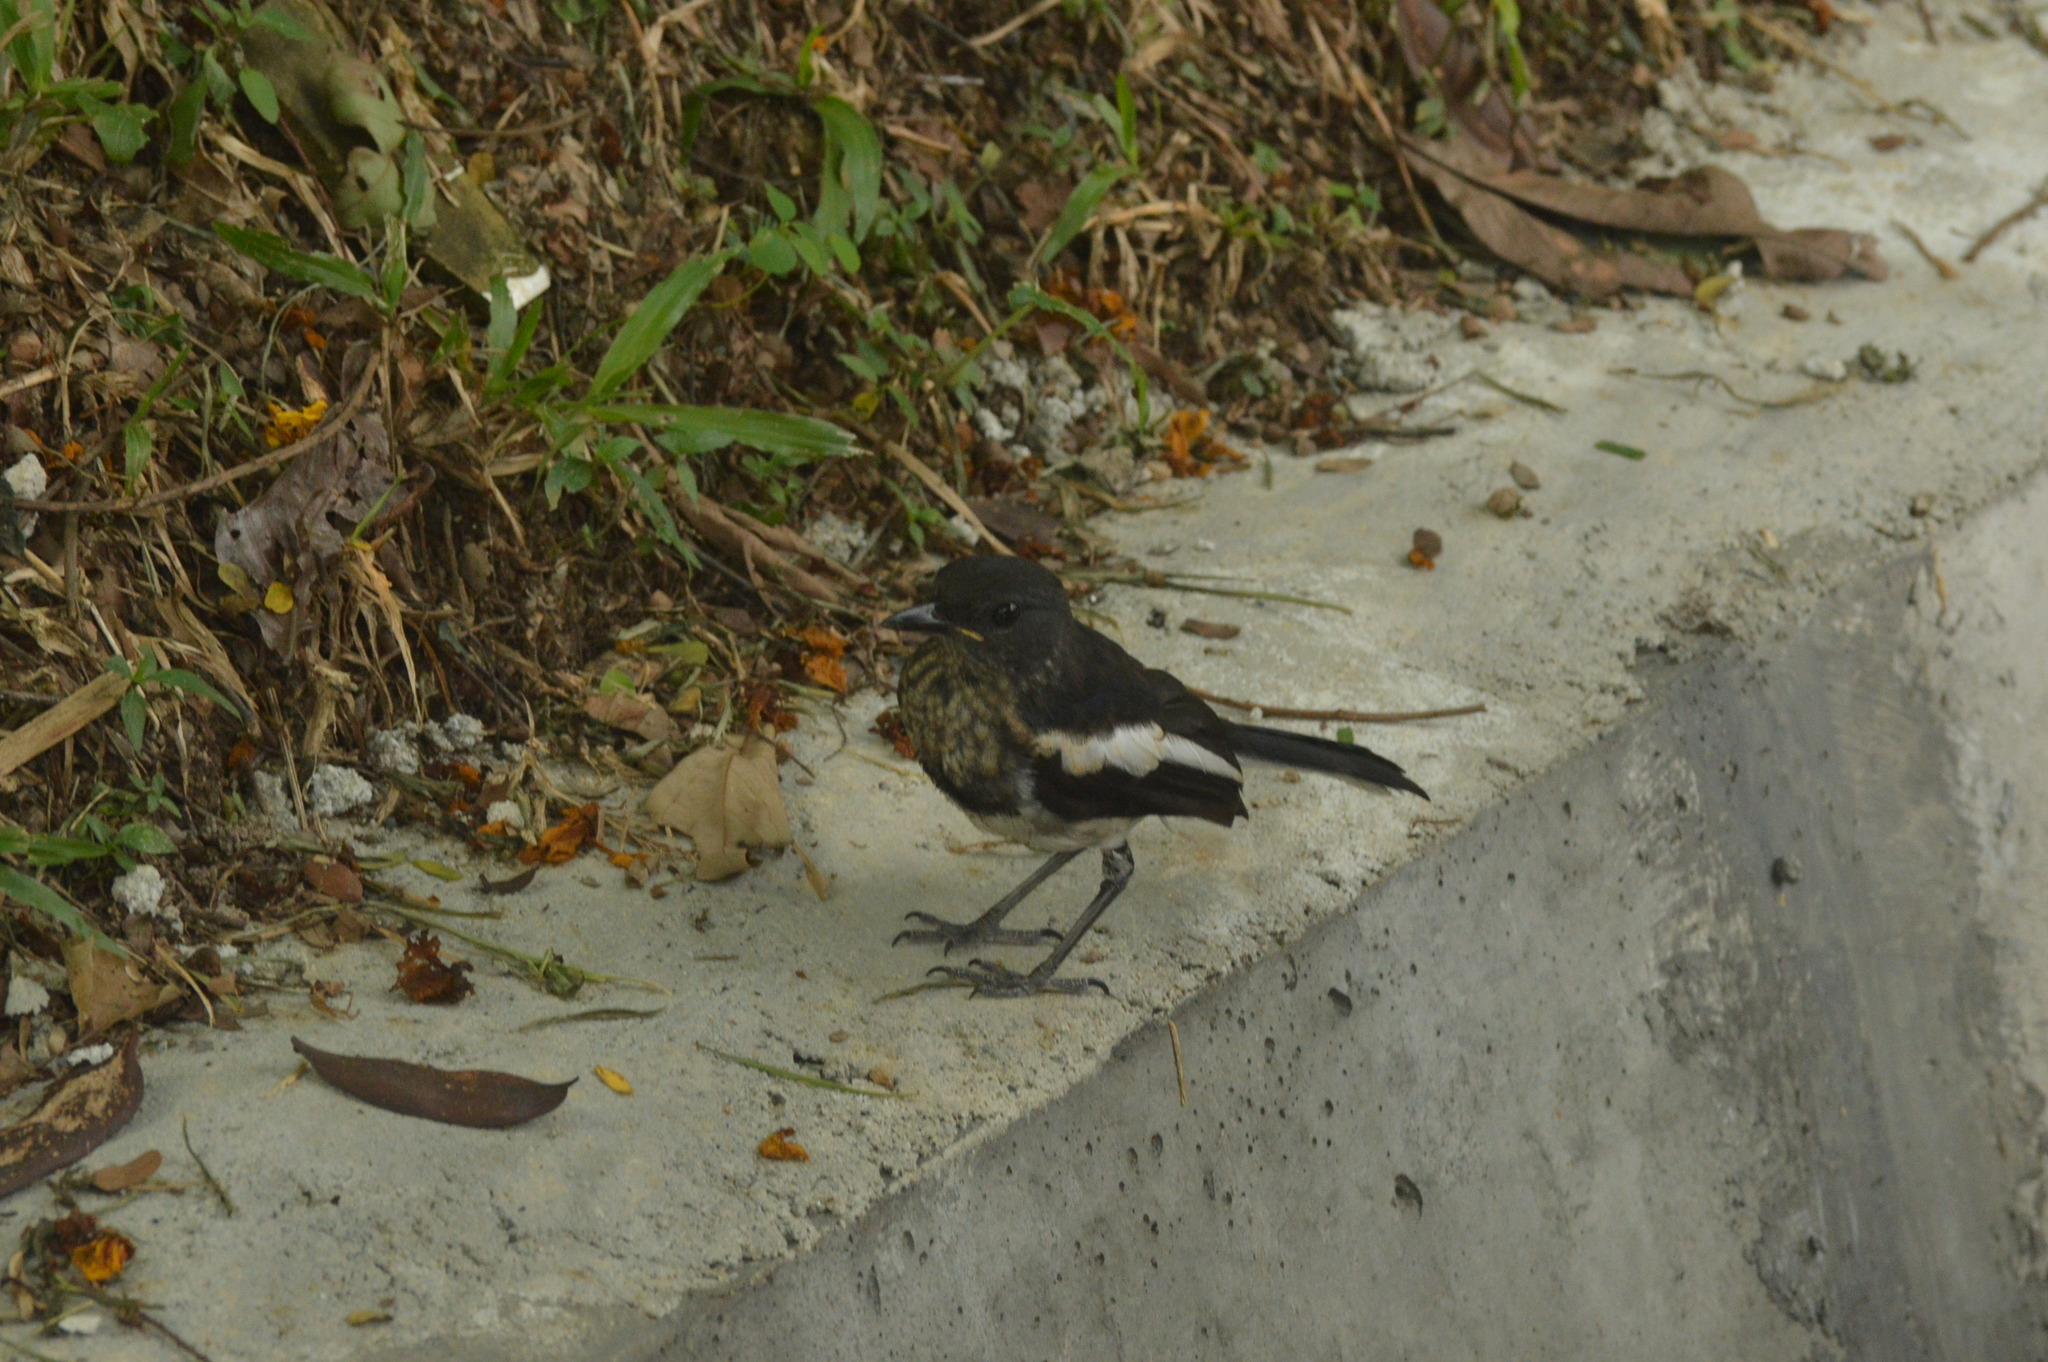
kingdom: Animalia
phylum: Chordata
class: Aves
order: Passeriformes
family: Muscicapidae
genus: Copsychus
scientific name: Copsychus saularis
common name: Oriental magpie-robin
